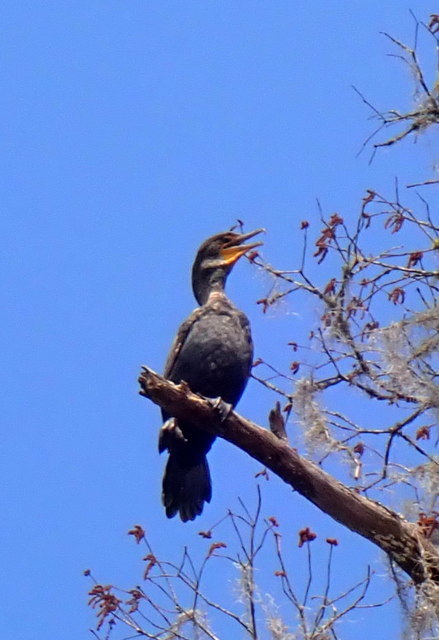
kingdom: Animalia
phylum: Chordata
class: Aves
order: Suliformes
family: Phalacrocoracidae
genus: Phalacrocorax
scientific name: Phalacrocorax auritus
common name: Double-crested cormorant
